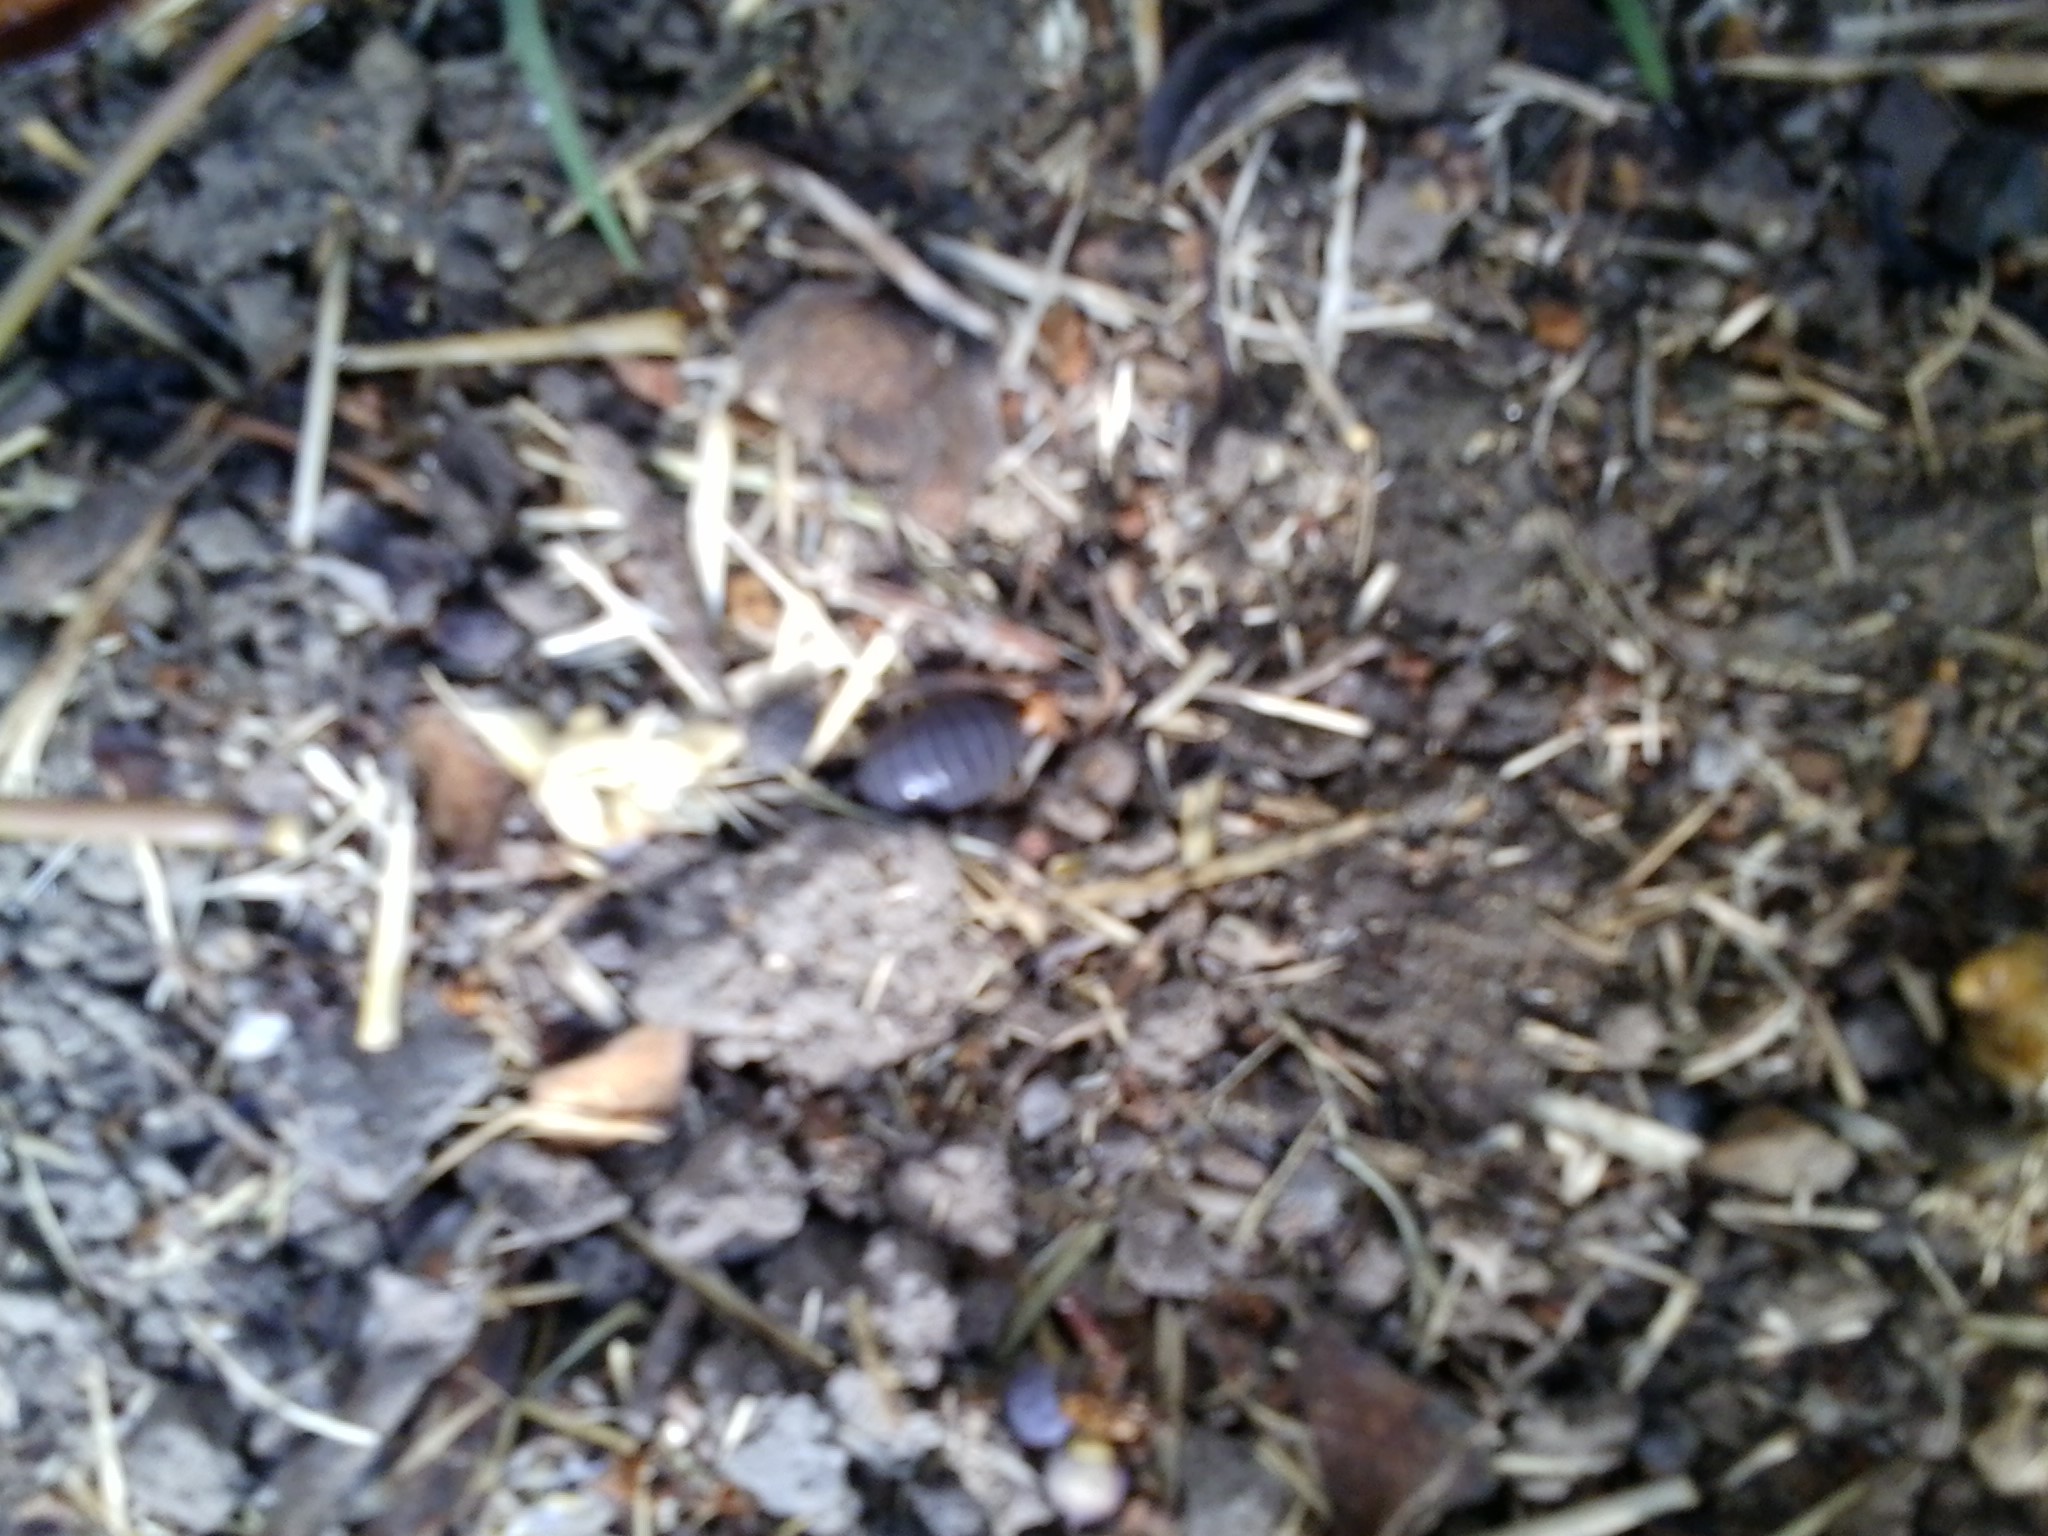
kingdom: Animalia
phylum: Arthropoda
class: Malacostraca
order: Isopoda
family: Armadillidiidae
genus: Armadillidium
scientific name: Armadillidium vulgare
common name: Common pill woodlouse
